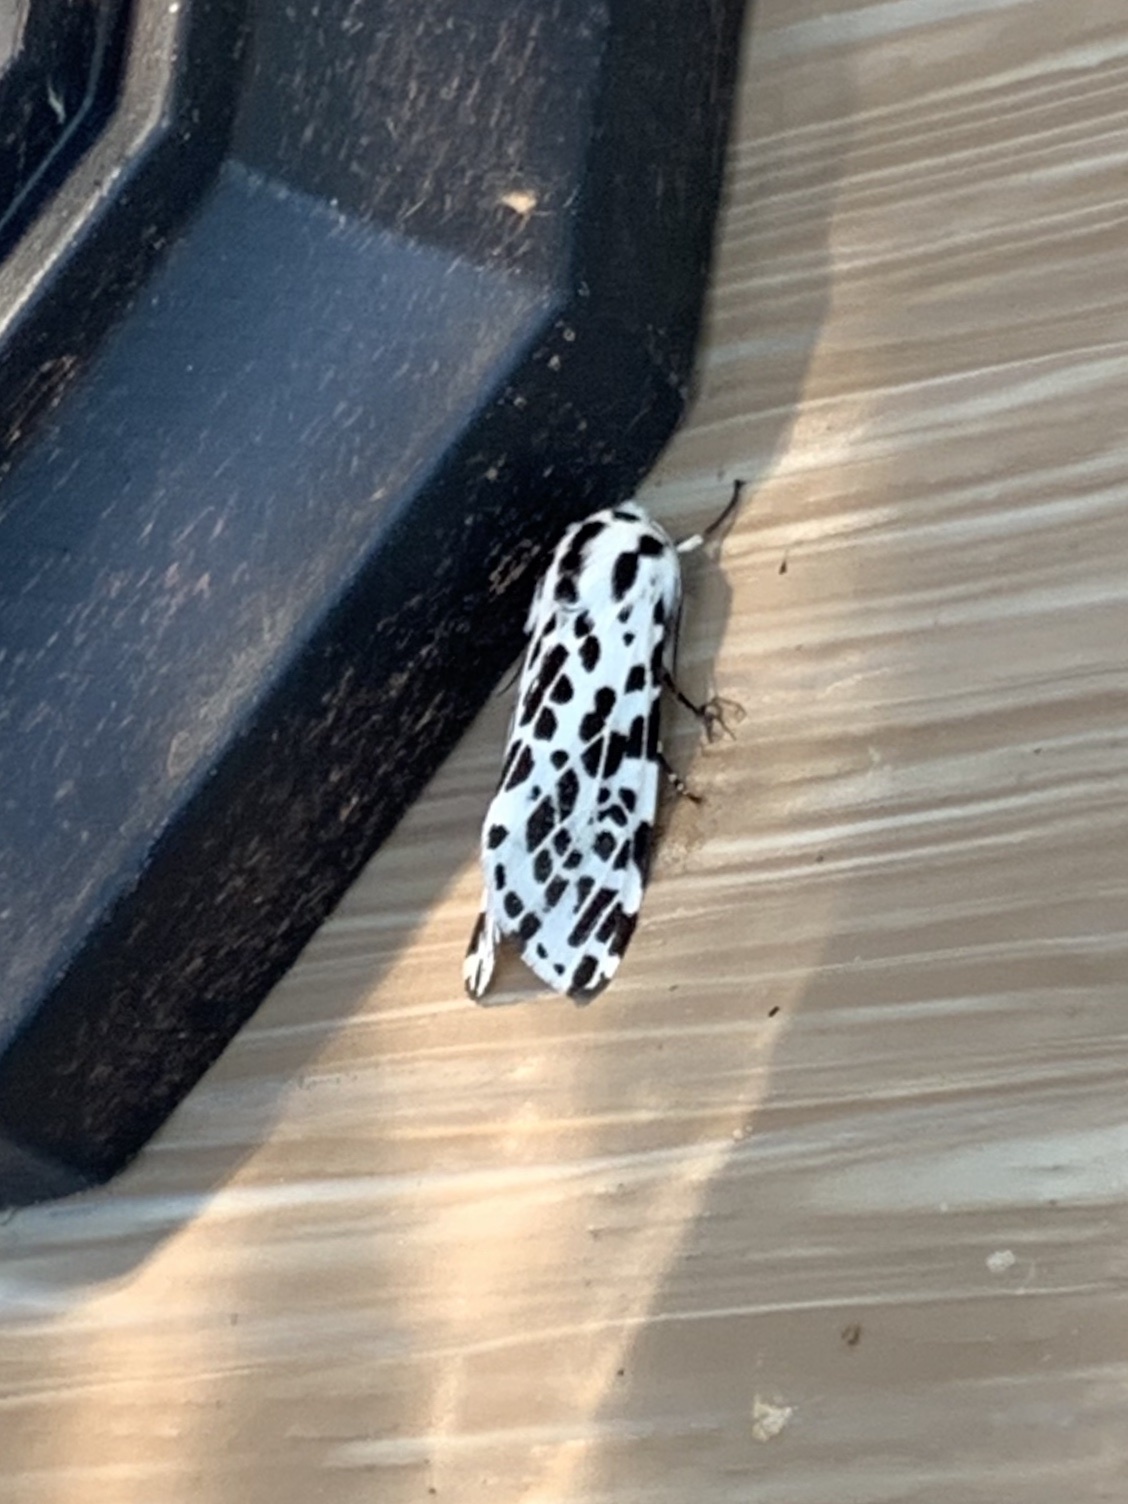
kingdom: Animalia
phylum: Arthropoda
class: Insecta
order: Lepidoptera
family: Erebidae
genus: Hypercompe
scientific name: Hypercompe permaculata
